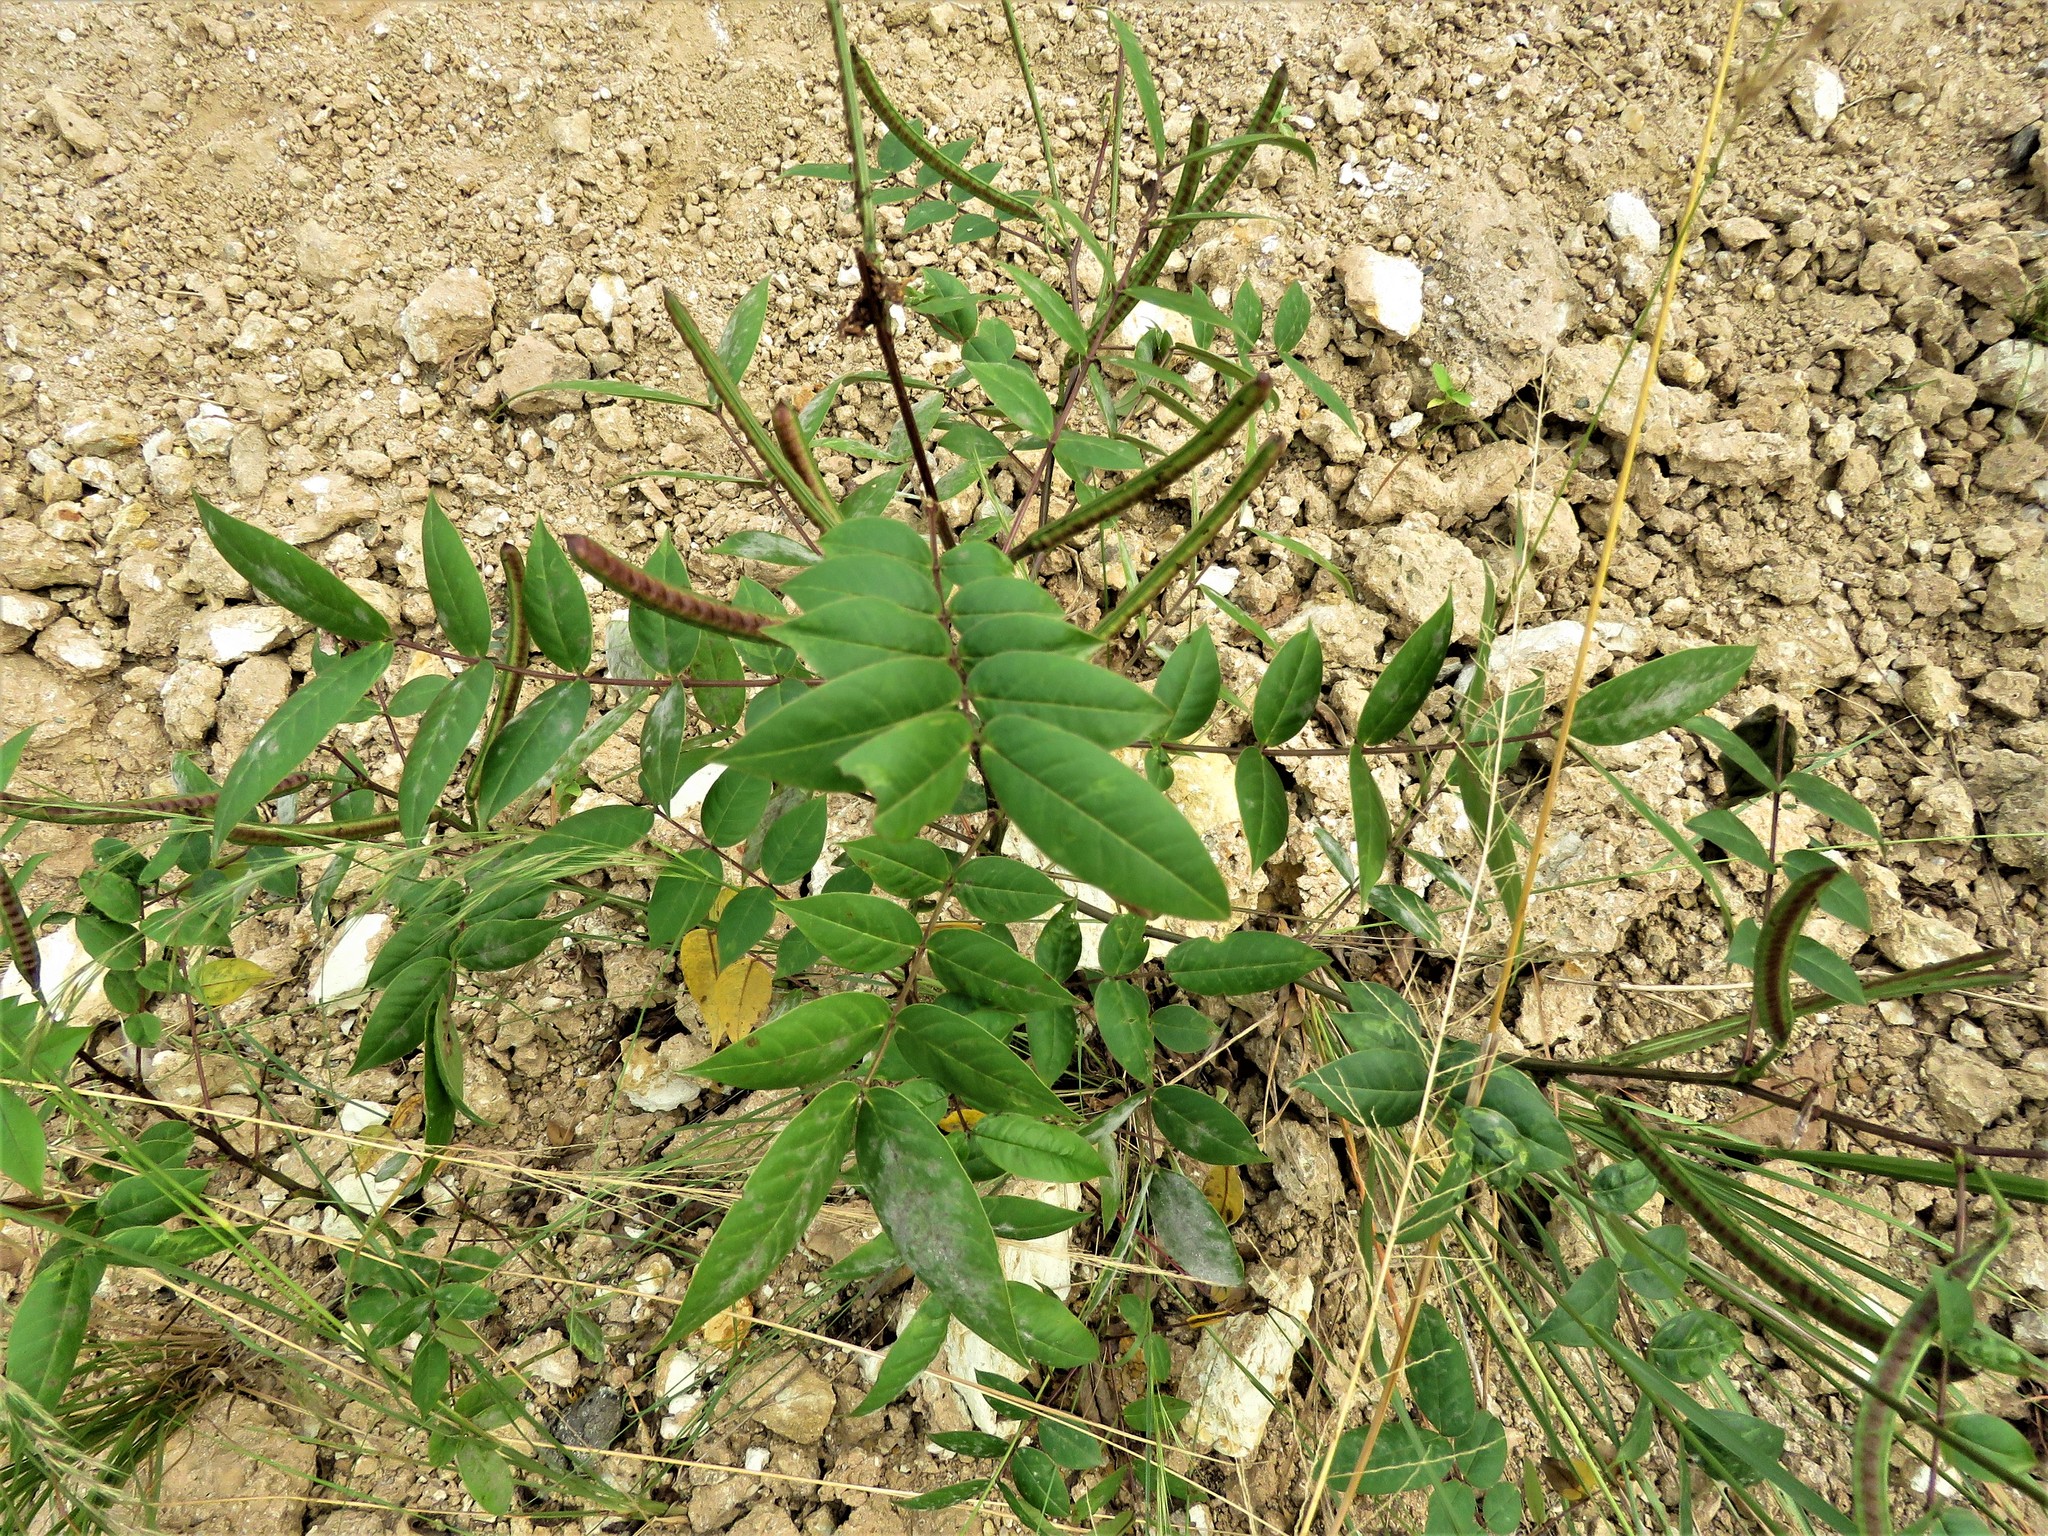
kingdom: Plantae
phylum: Tracheophyta
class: Magnoliopsida
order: Fabales
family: Fabaceae
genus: Senna
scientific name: Senna occidentalis
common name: Septicweed
